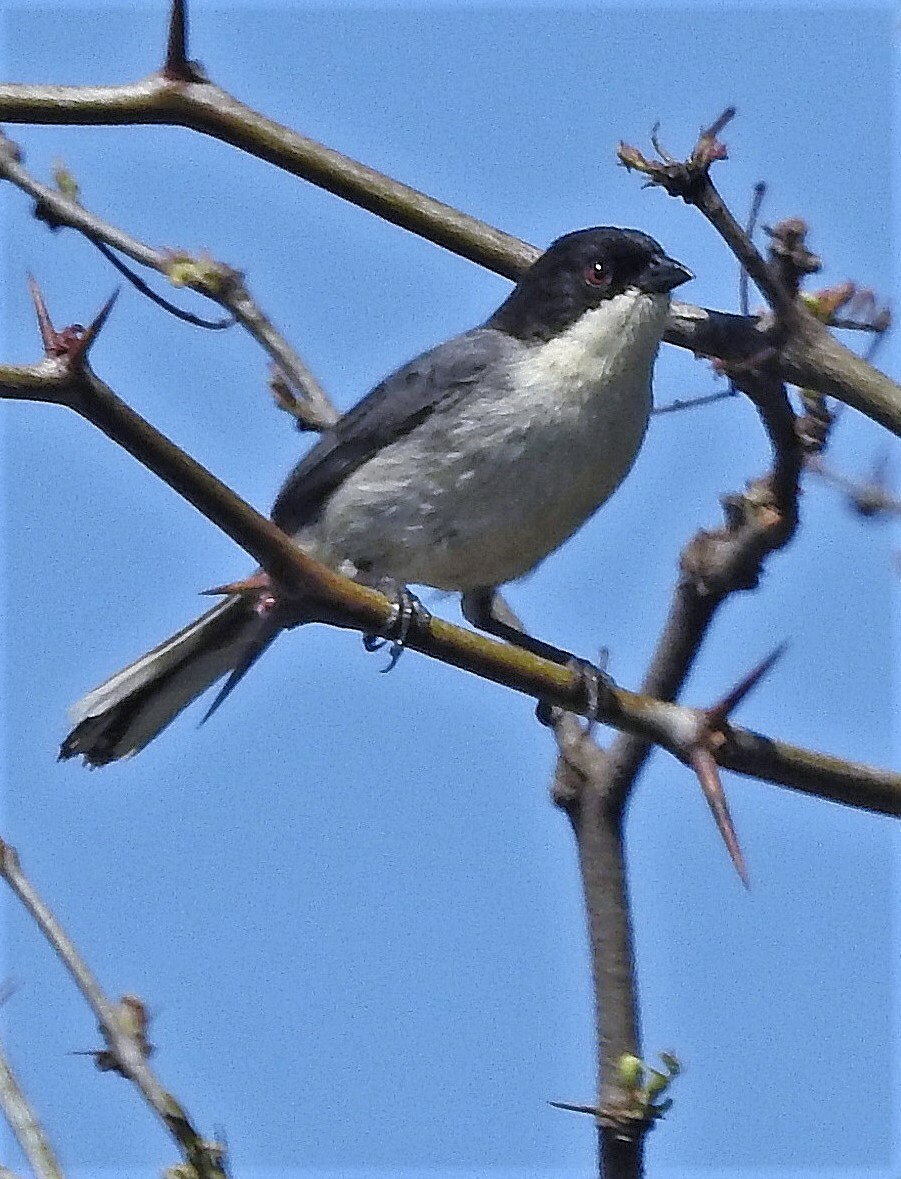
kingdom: Animalia
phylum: Chordata
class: Aves
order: Passeriformes
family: Thraupidae
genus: Microspingus
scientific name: Microspingus melanoleucus
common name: Black-capped warbling-finch
